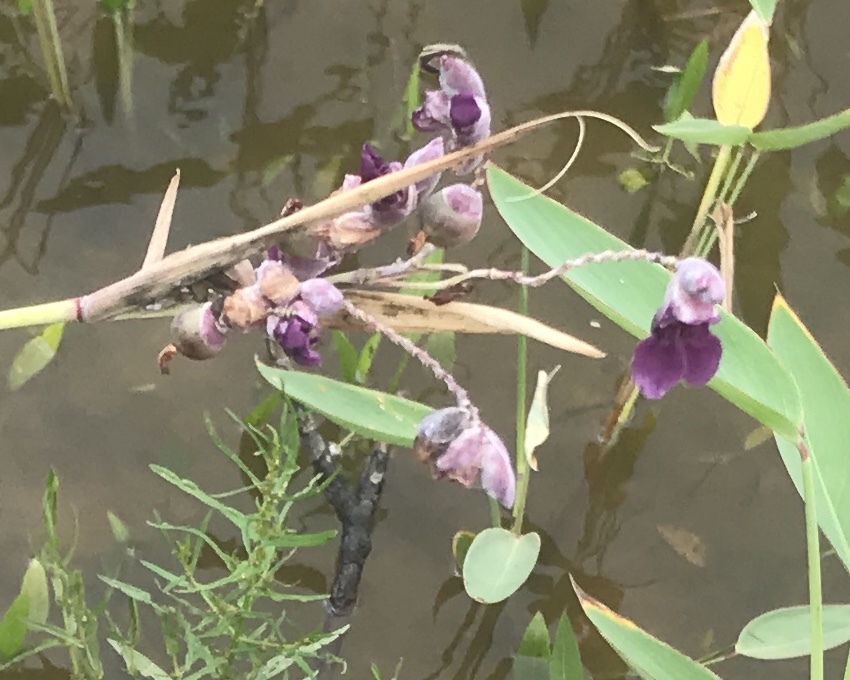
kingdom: Plantae
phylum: Tracheophyta
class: Liliopsida
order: Zingiberales
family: Marantaceae
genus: Thalia
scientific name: Thalia dealbata
